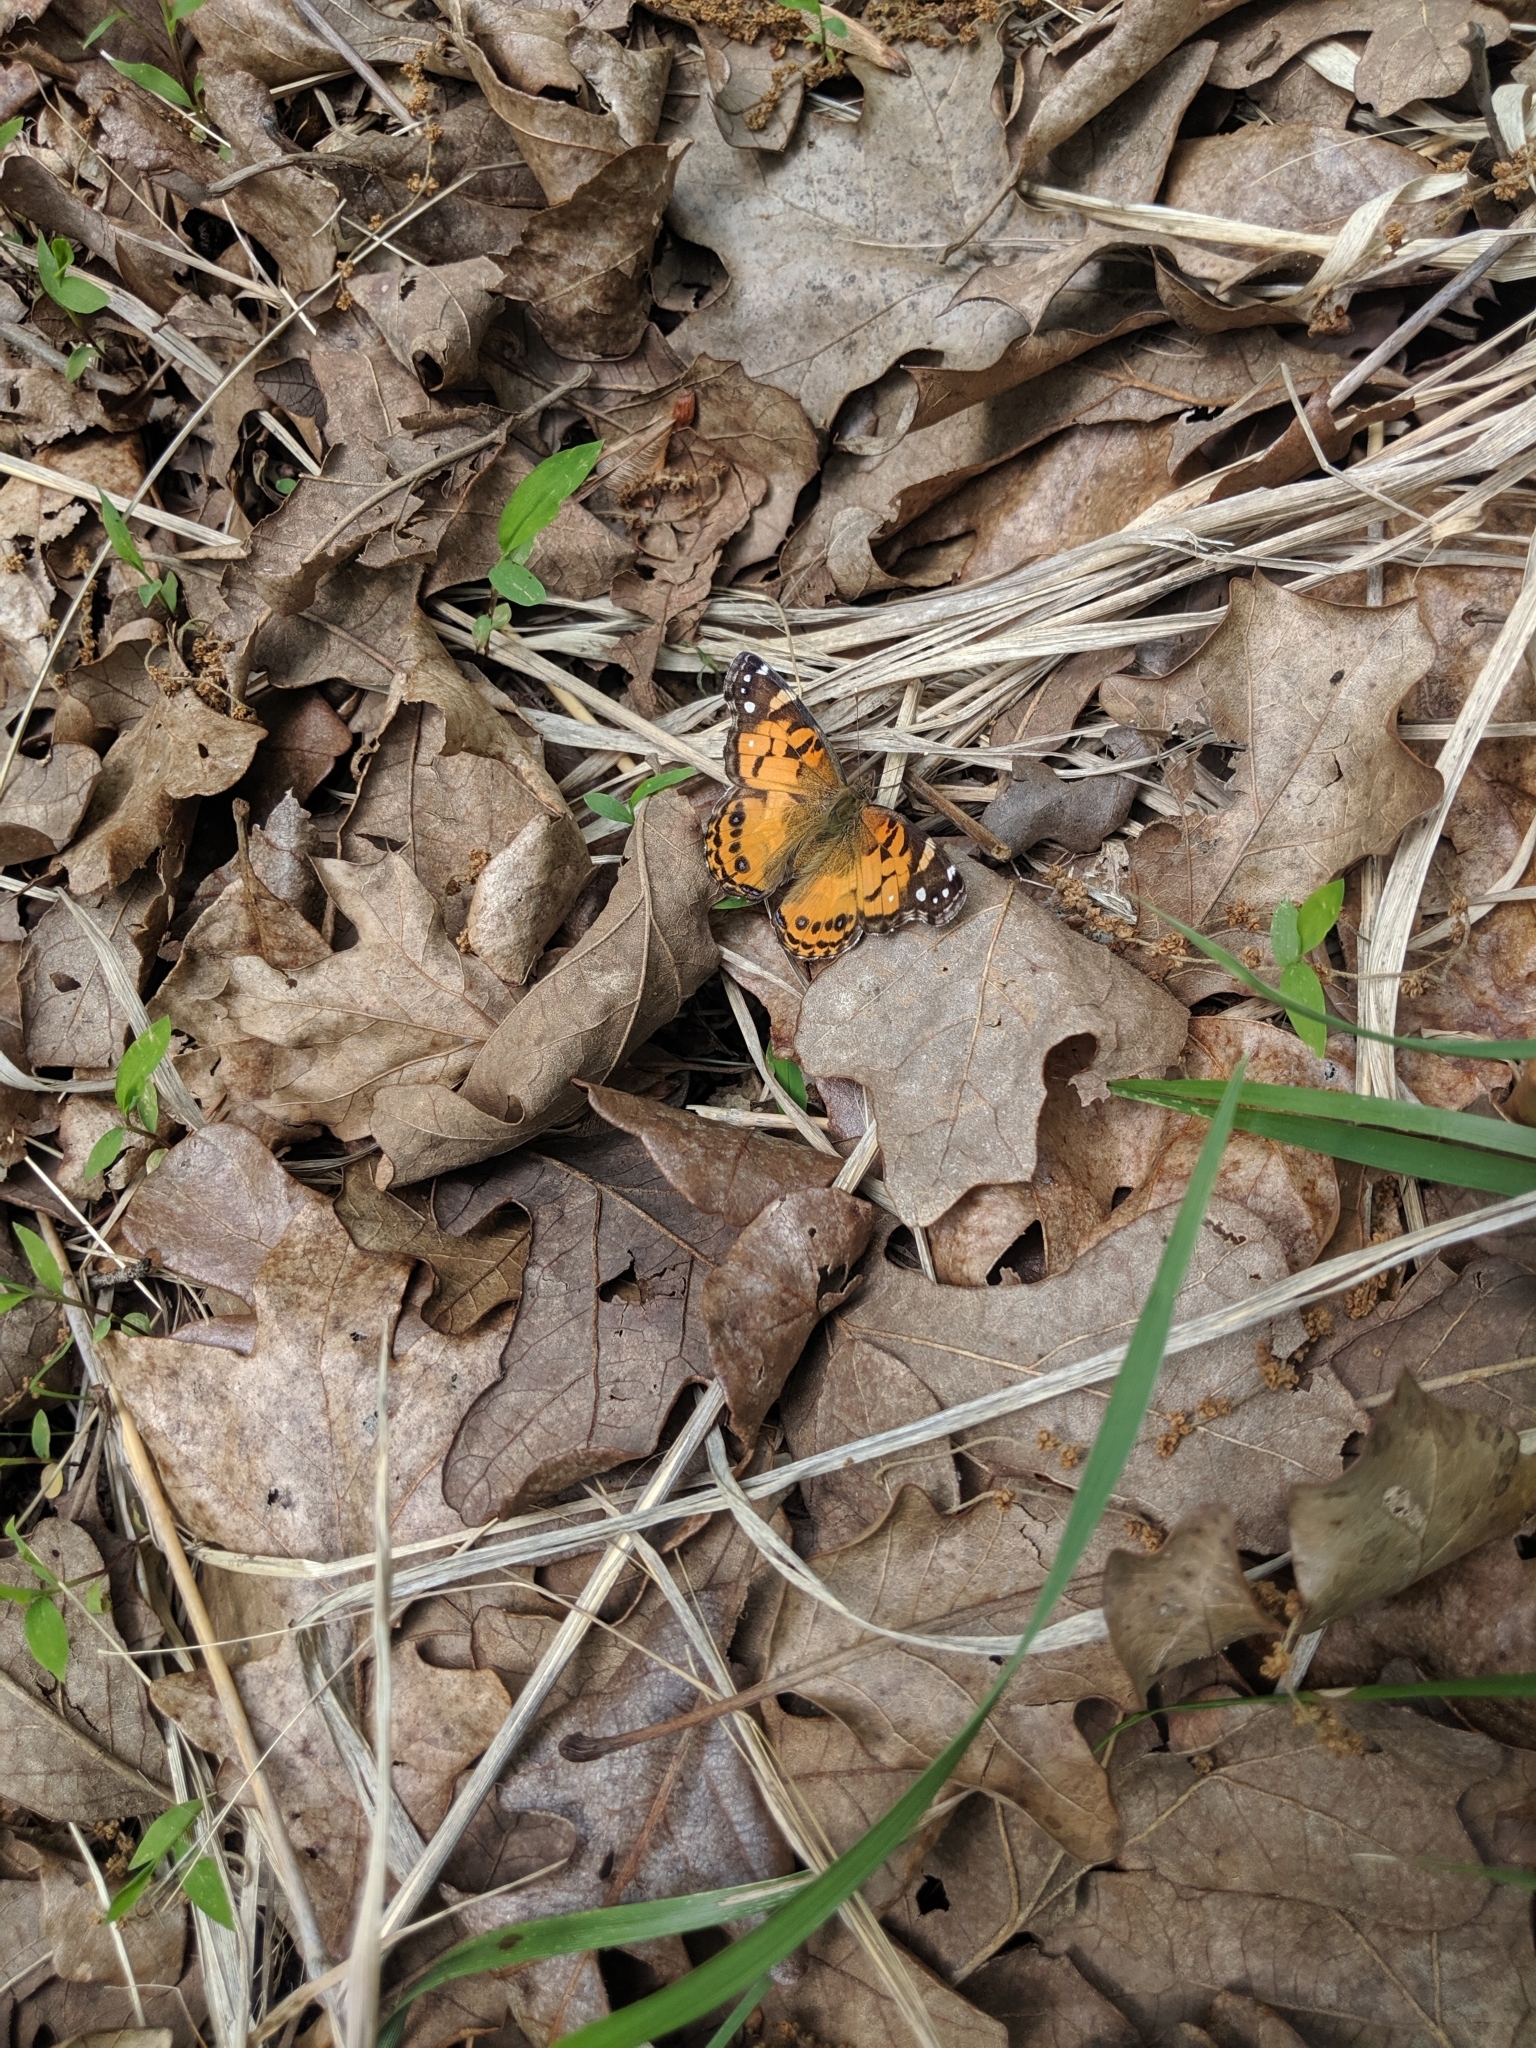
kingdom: Animalia
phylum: Arthropoda
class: Insecta
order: Lepidoptera
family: Nymphalidae
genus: Vanessa
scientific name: Vanessa virginiensis
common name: American lady
